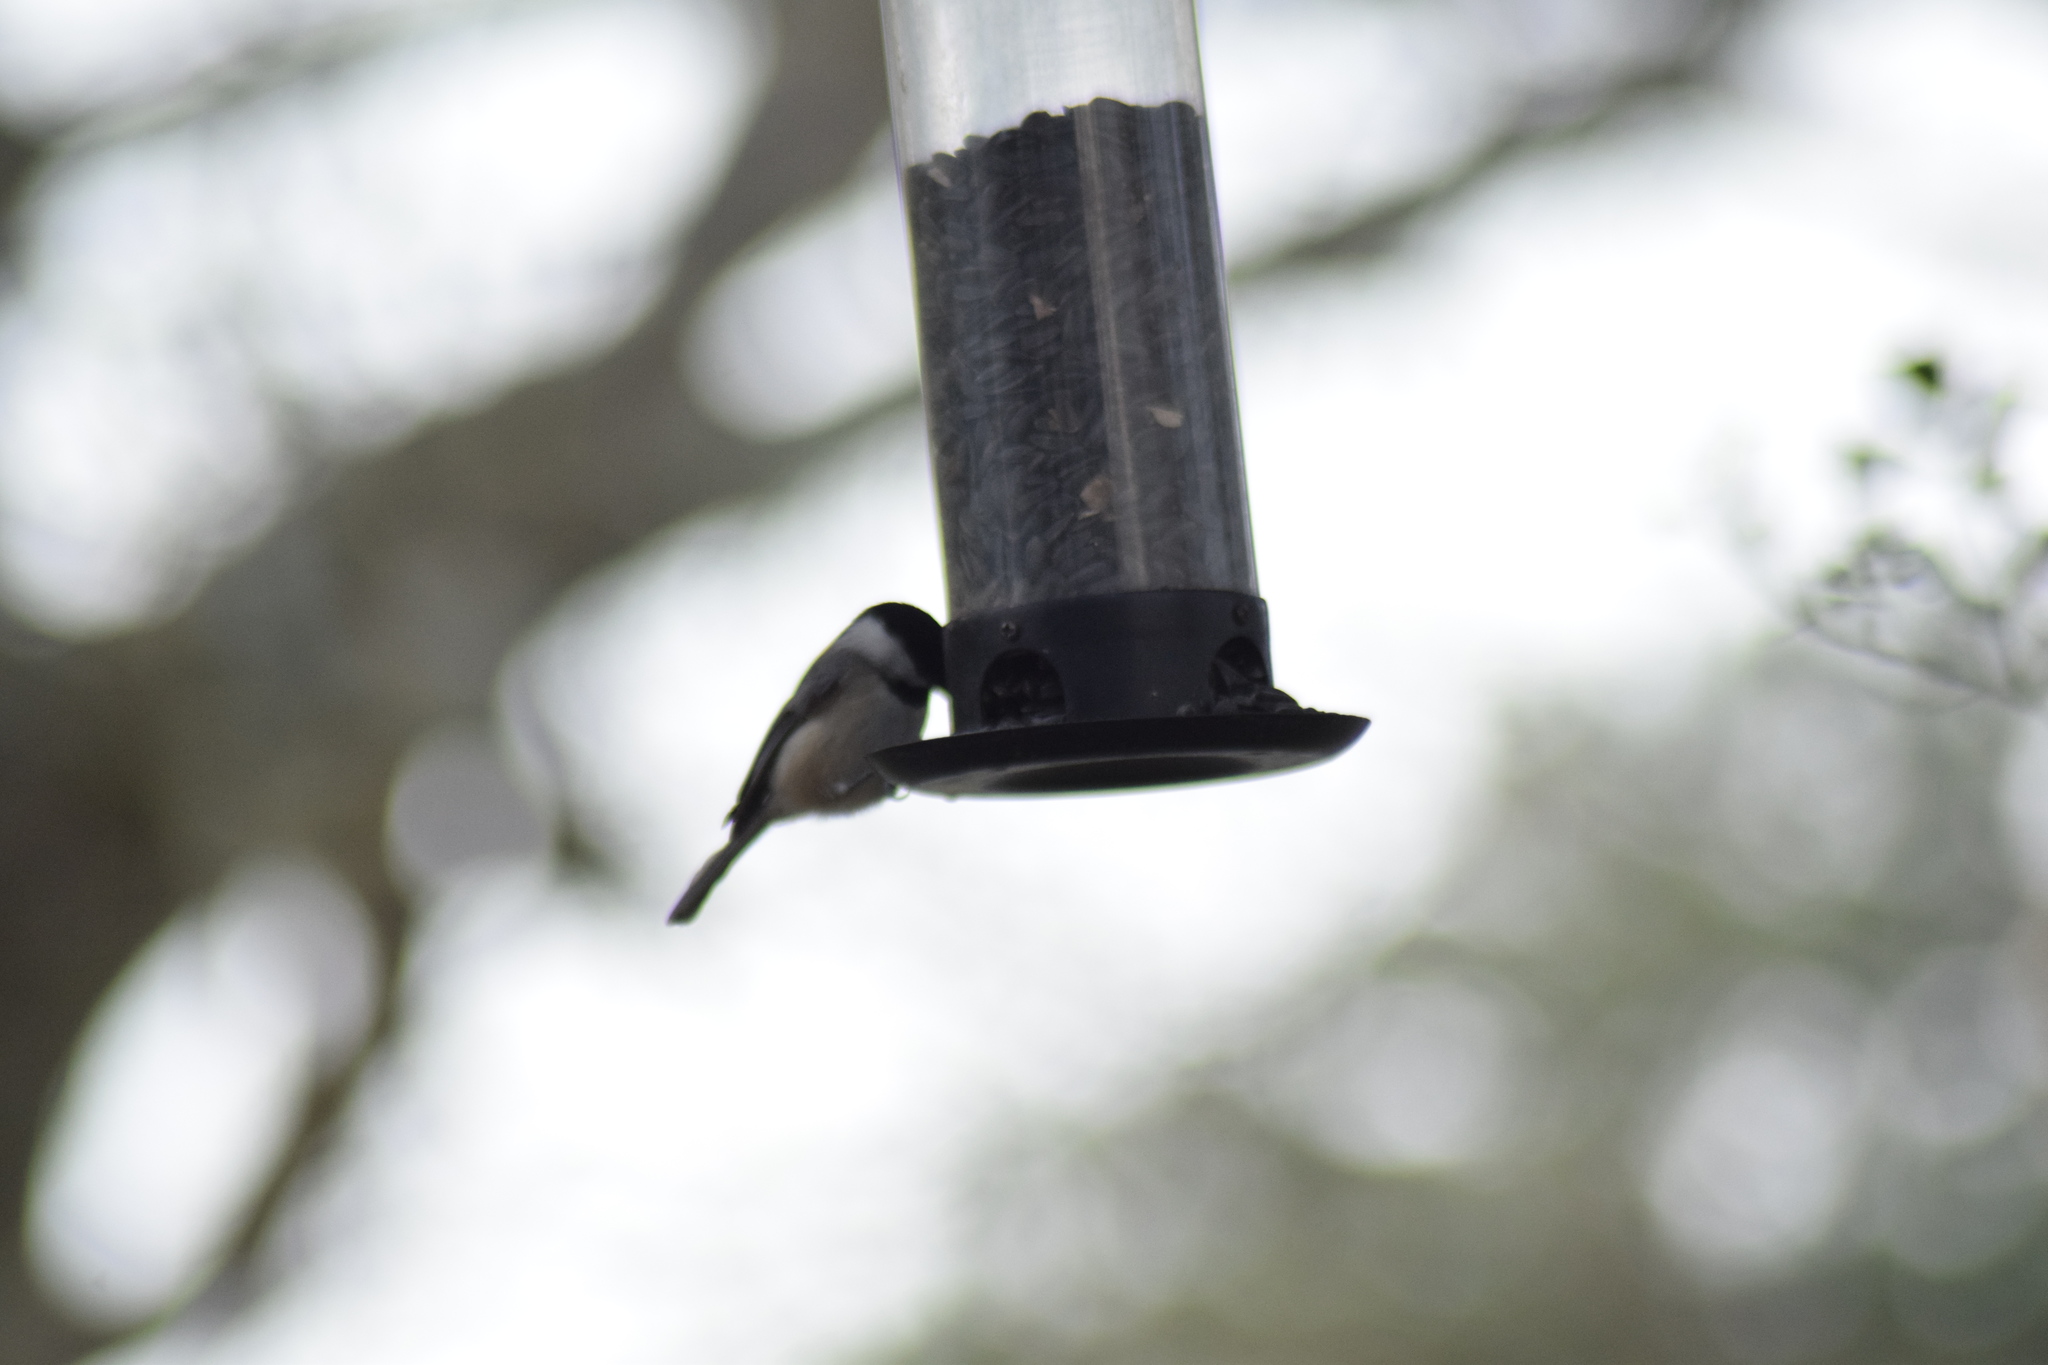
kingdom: Animalia
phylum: Chordata
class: Aves
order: Passeriformes
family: Paridae
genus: Poecile
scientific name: Poecile carolinensis
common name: Carolina chickadee
